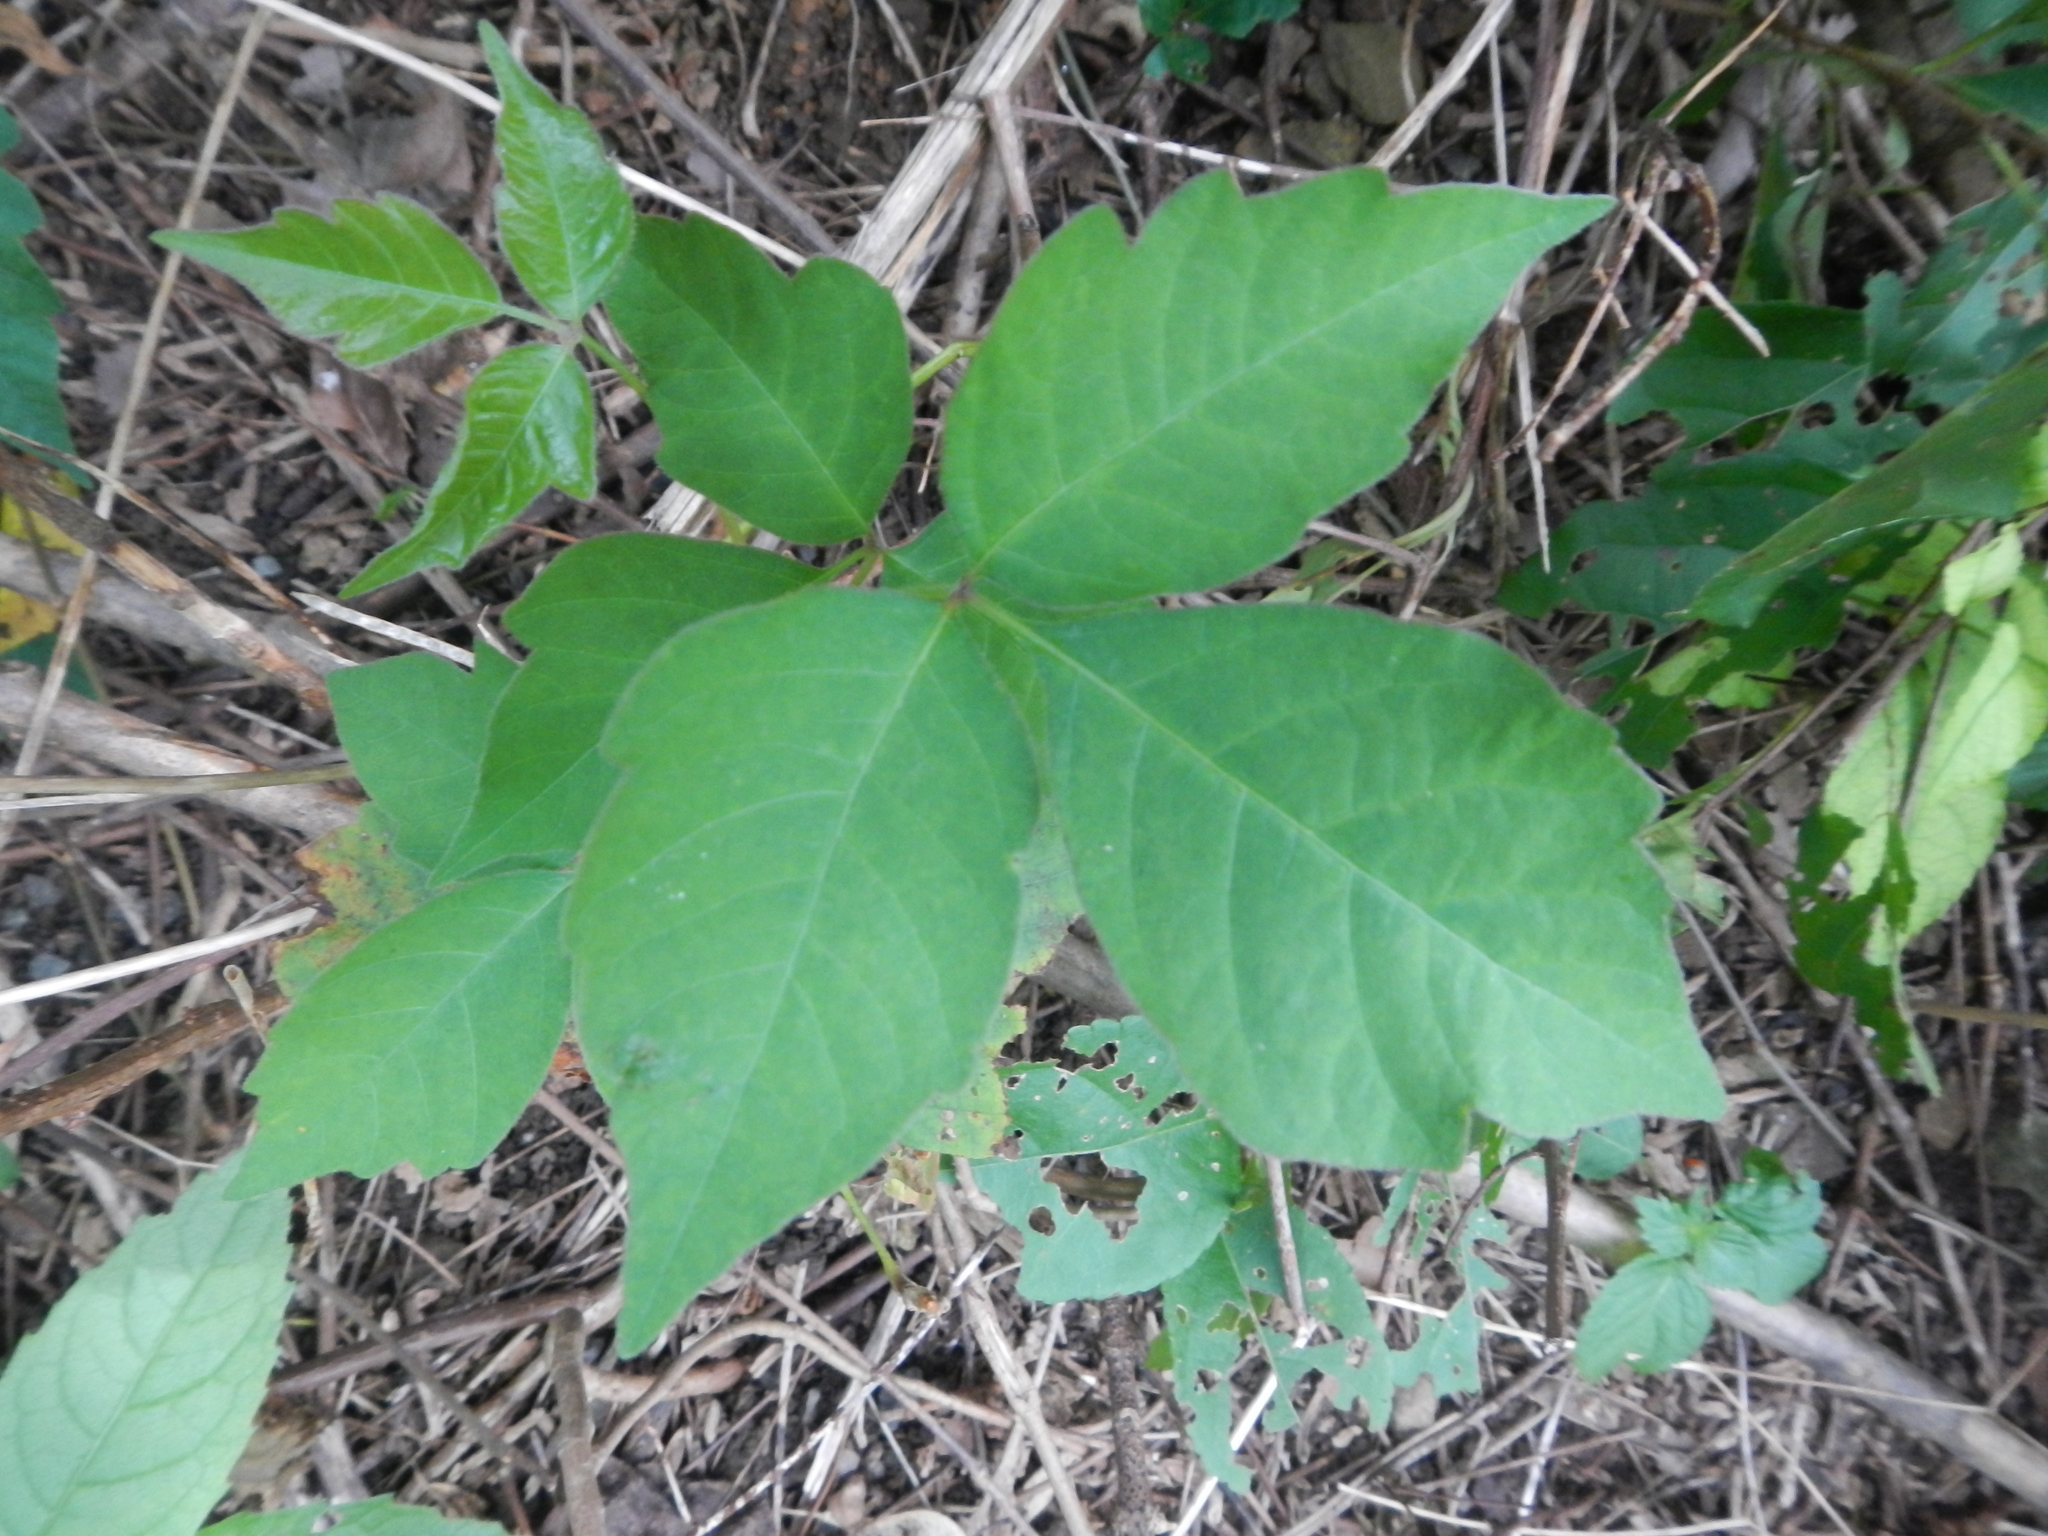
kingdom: Plantae
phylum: Tracheophyta
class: Magnoliopsida
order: Sapindales
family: Anacardiaceae
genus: Toxicodendron
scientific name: Toxicodendron radicans
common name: Poison ivy
